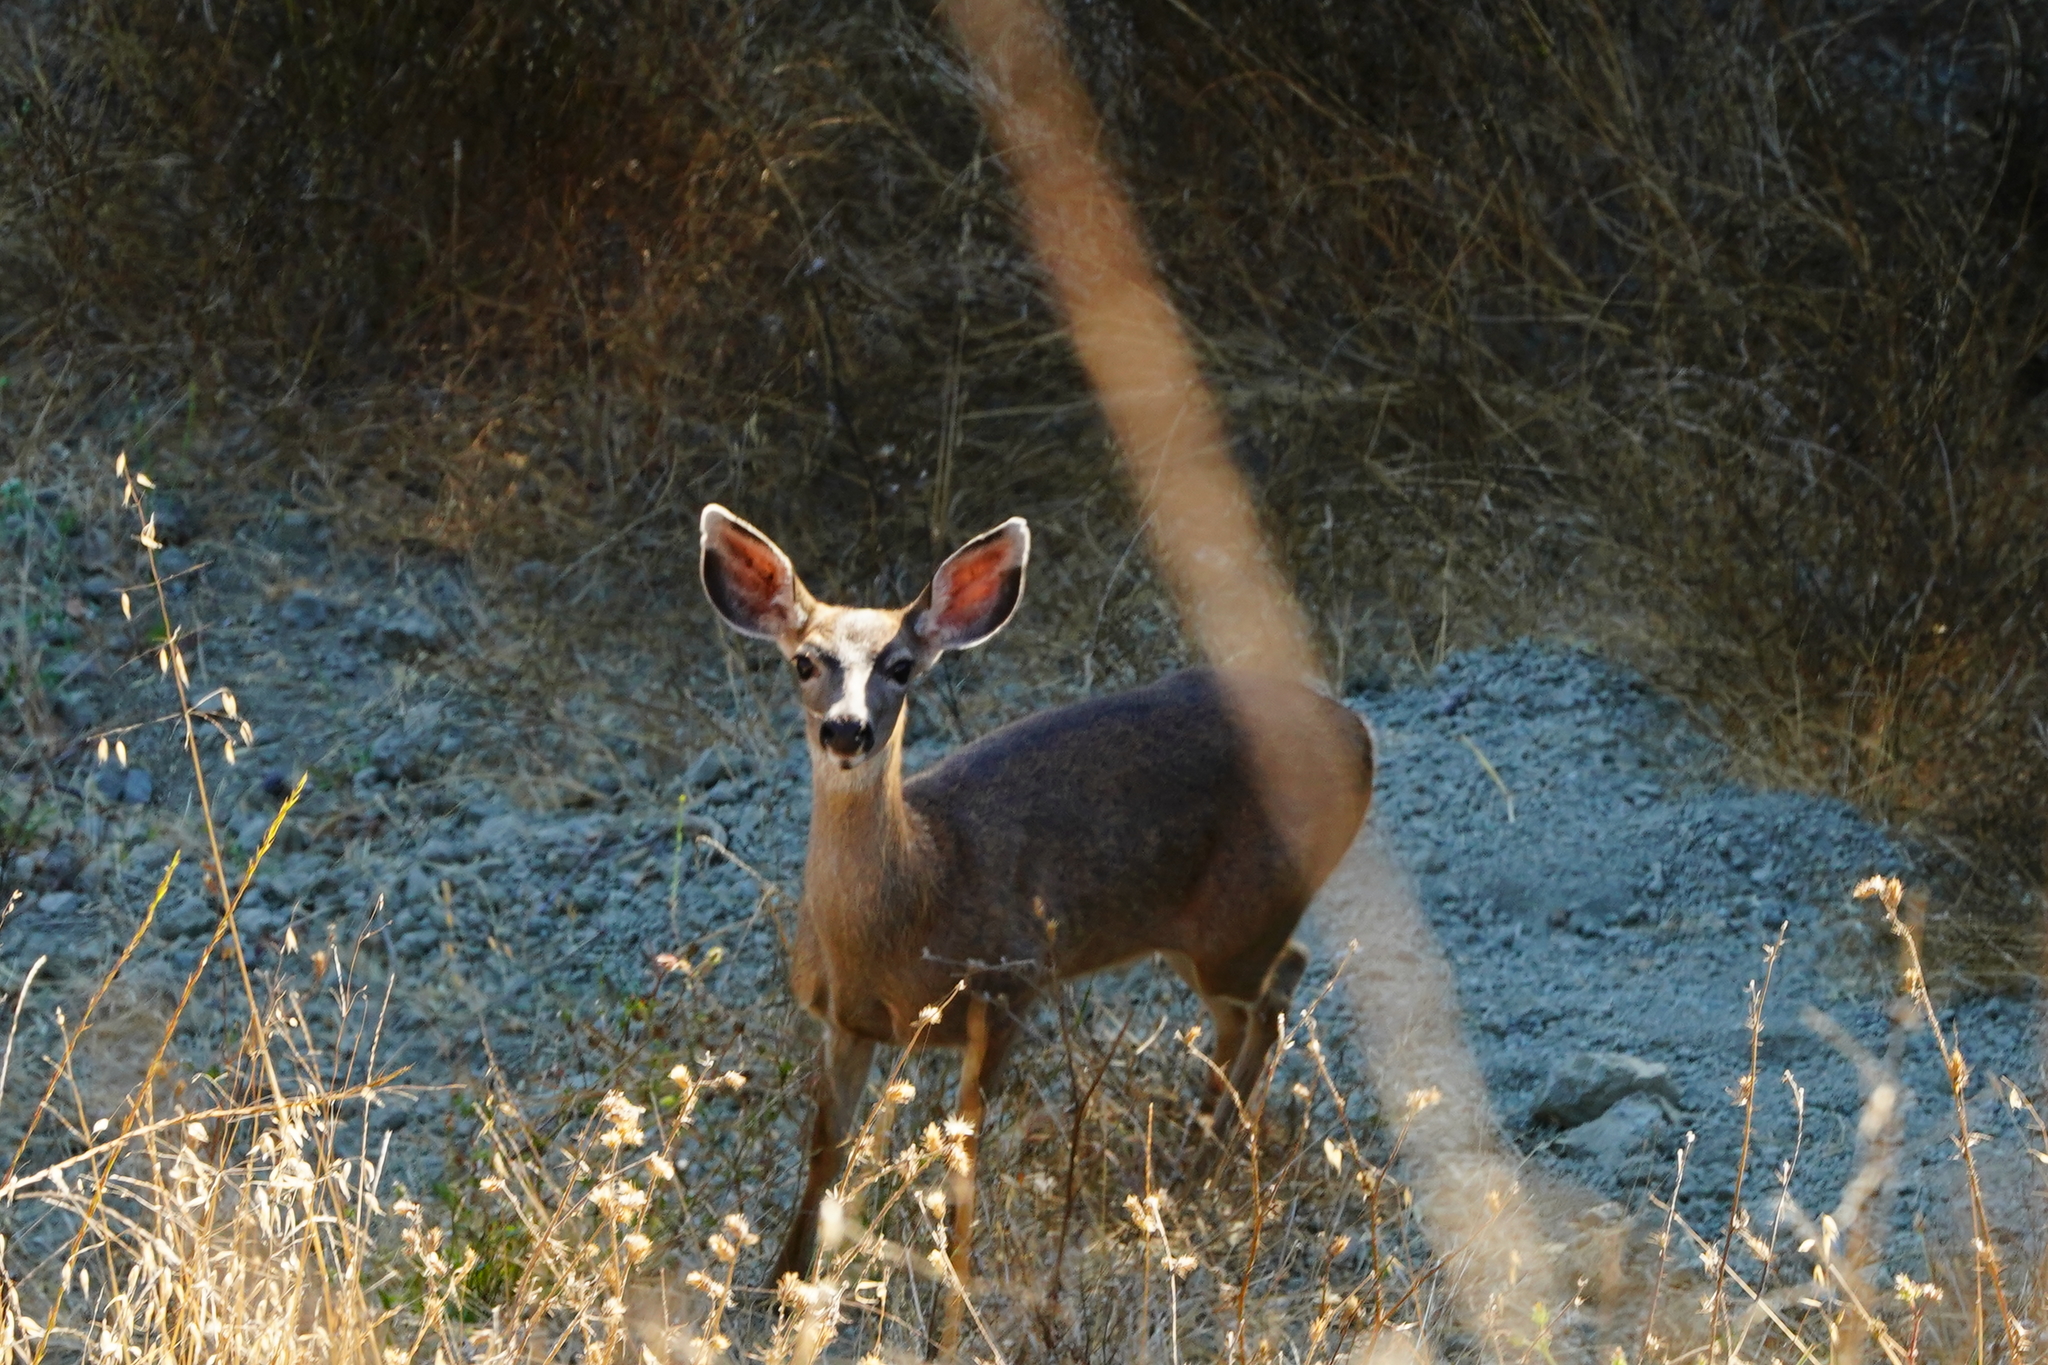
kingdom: Animalia
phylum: Chordata
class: Mammalia
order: Artiodactyla
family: Cervidae
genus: Odocoileus
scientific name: Odocoileus hemionus
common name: Mule deer
